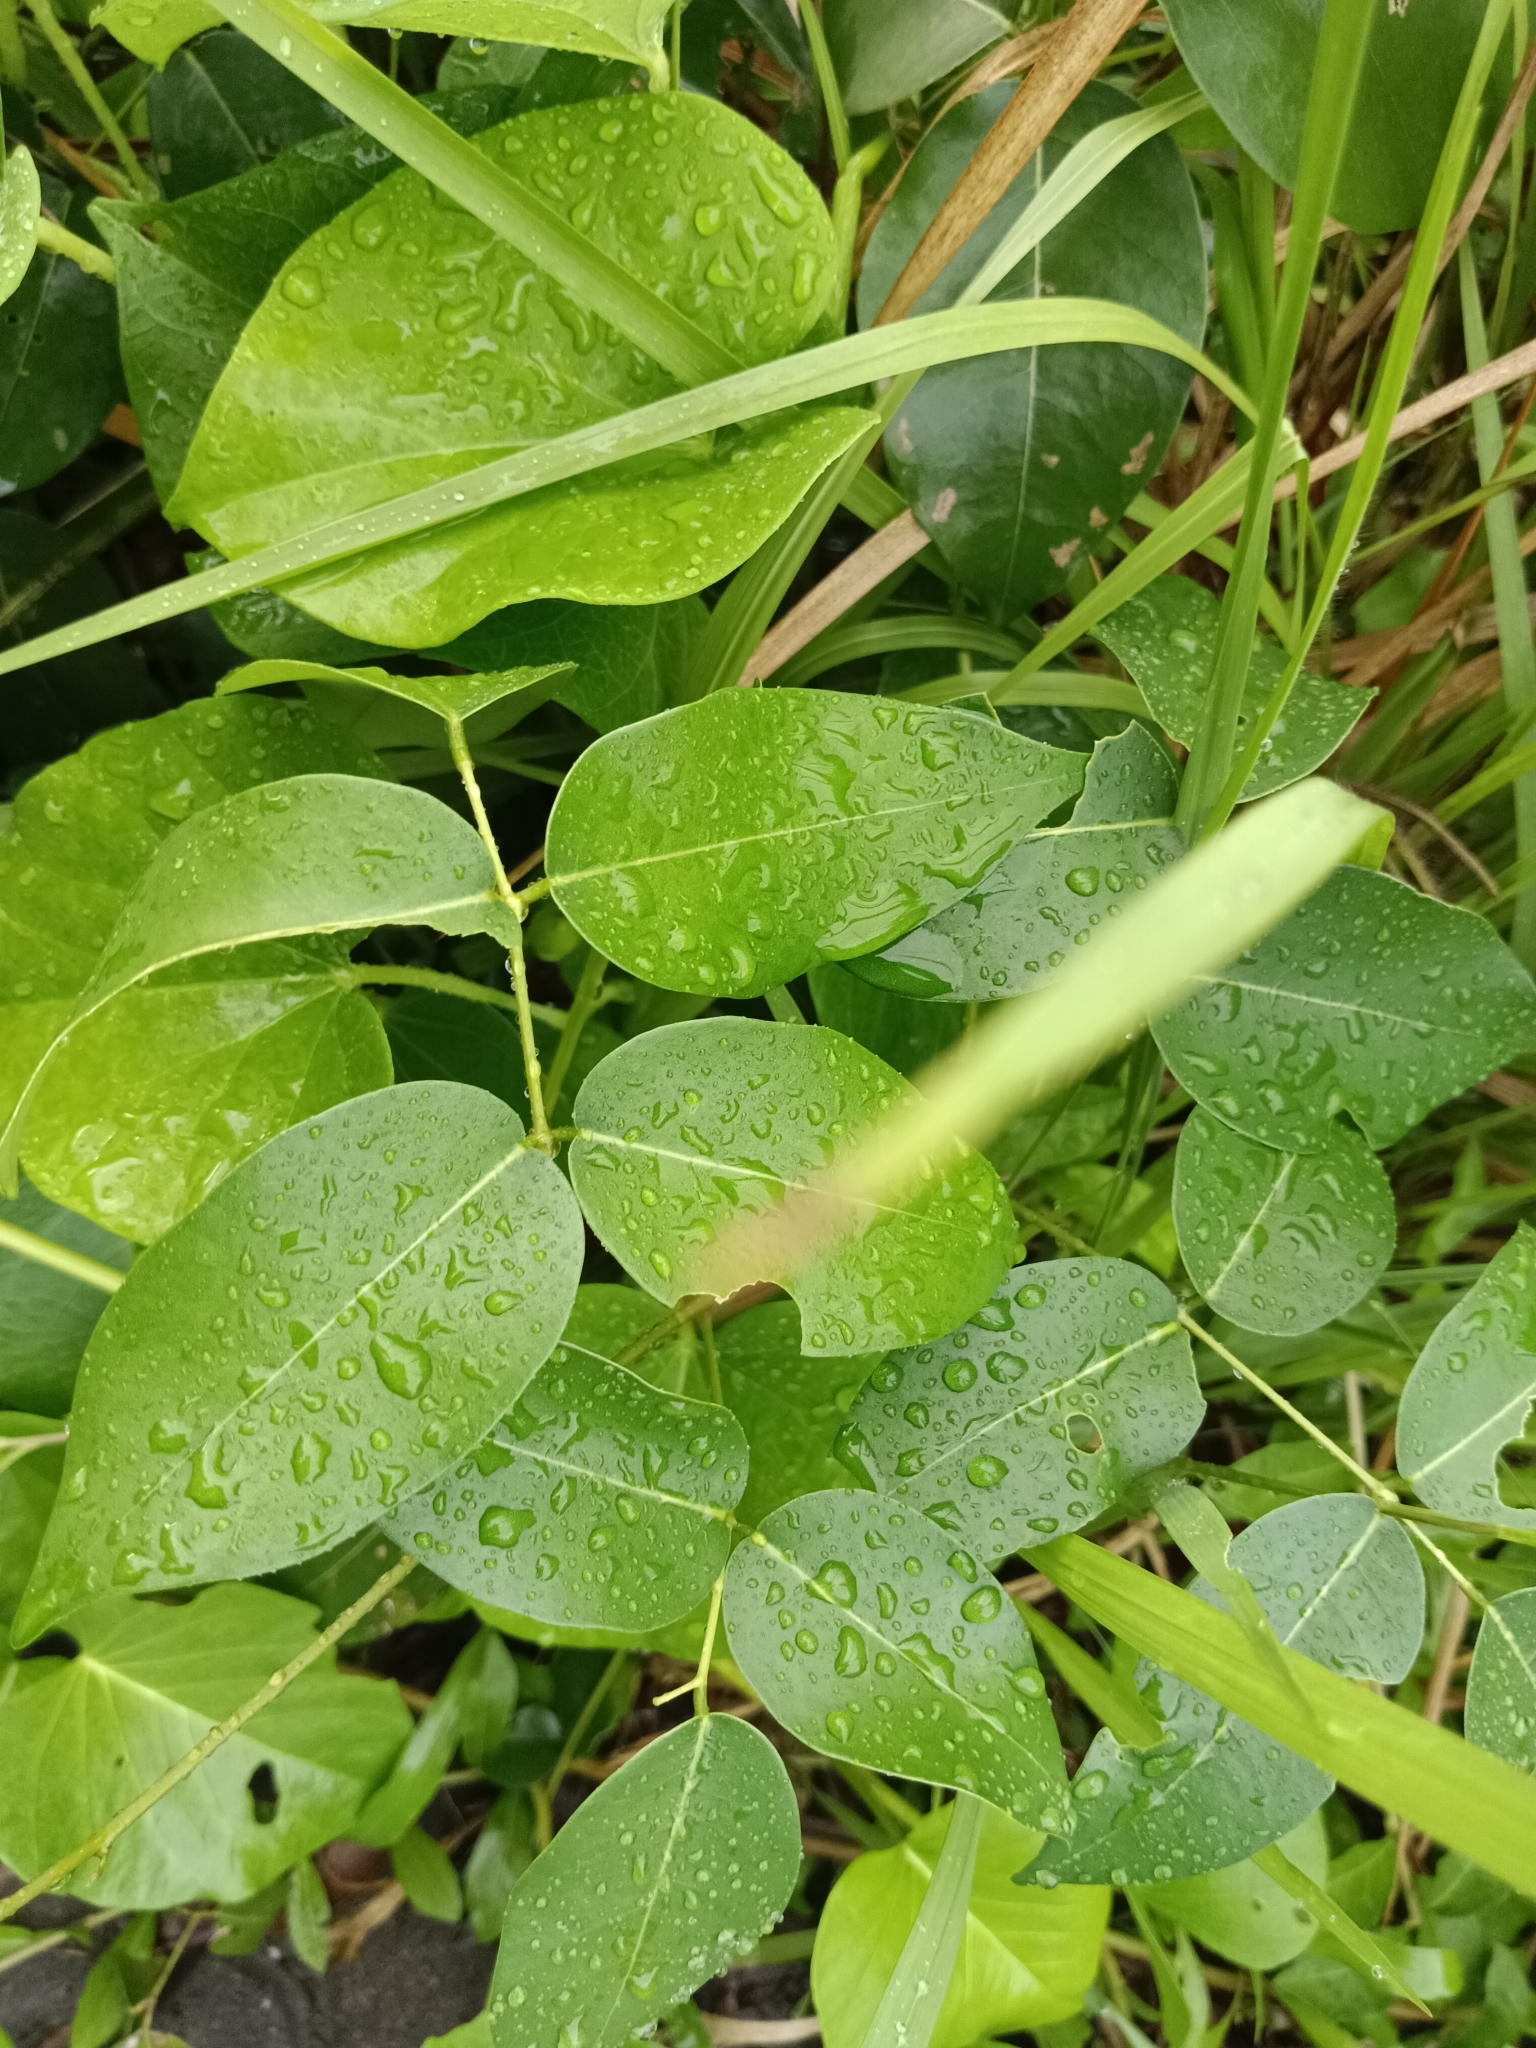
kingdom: Plantae
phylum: Tracheophyta
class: Magnoliopsida
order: Fabales
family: Fabaceae
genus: Derris
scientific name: Derris trifoliata
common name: Three-leaf derris
